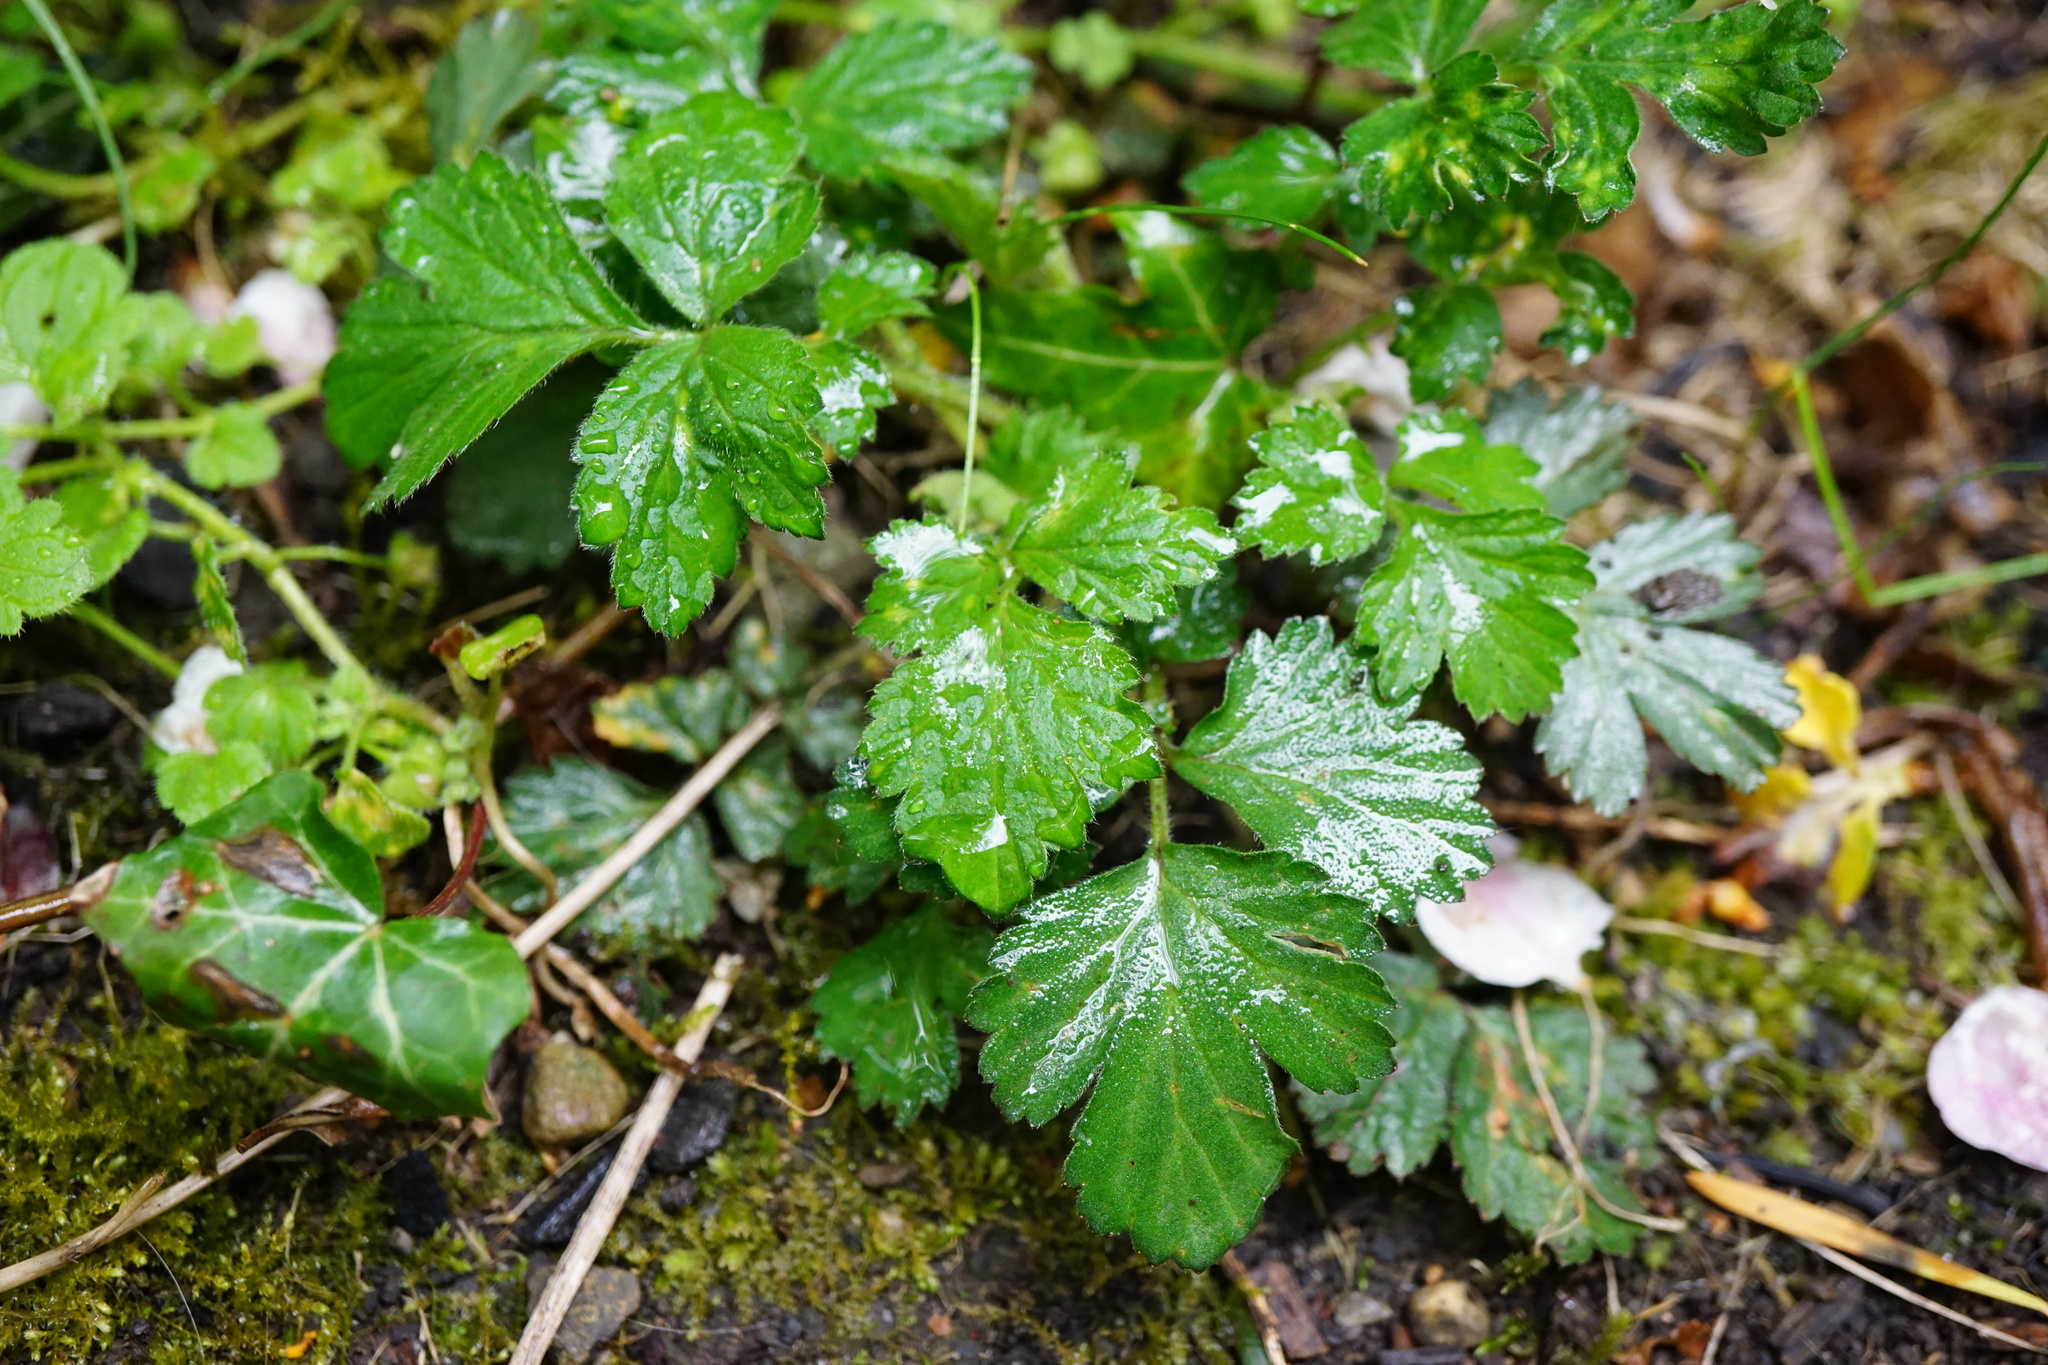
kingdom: Plantae
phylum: Tracheophyta
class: Magnoliopsida
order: Rosales
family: Rosaceae
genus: Geum
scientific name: Geum urbanum
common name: Wood avens
